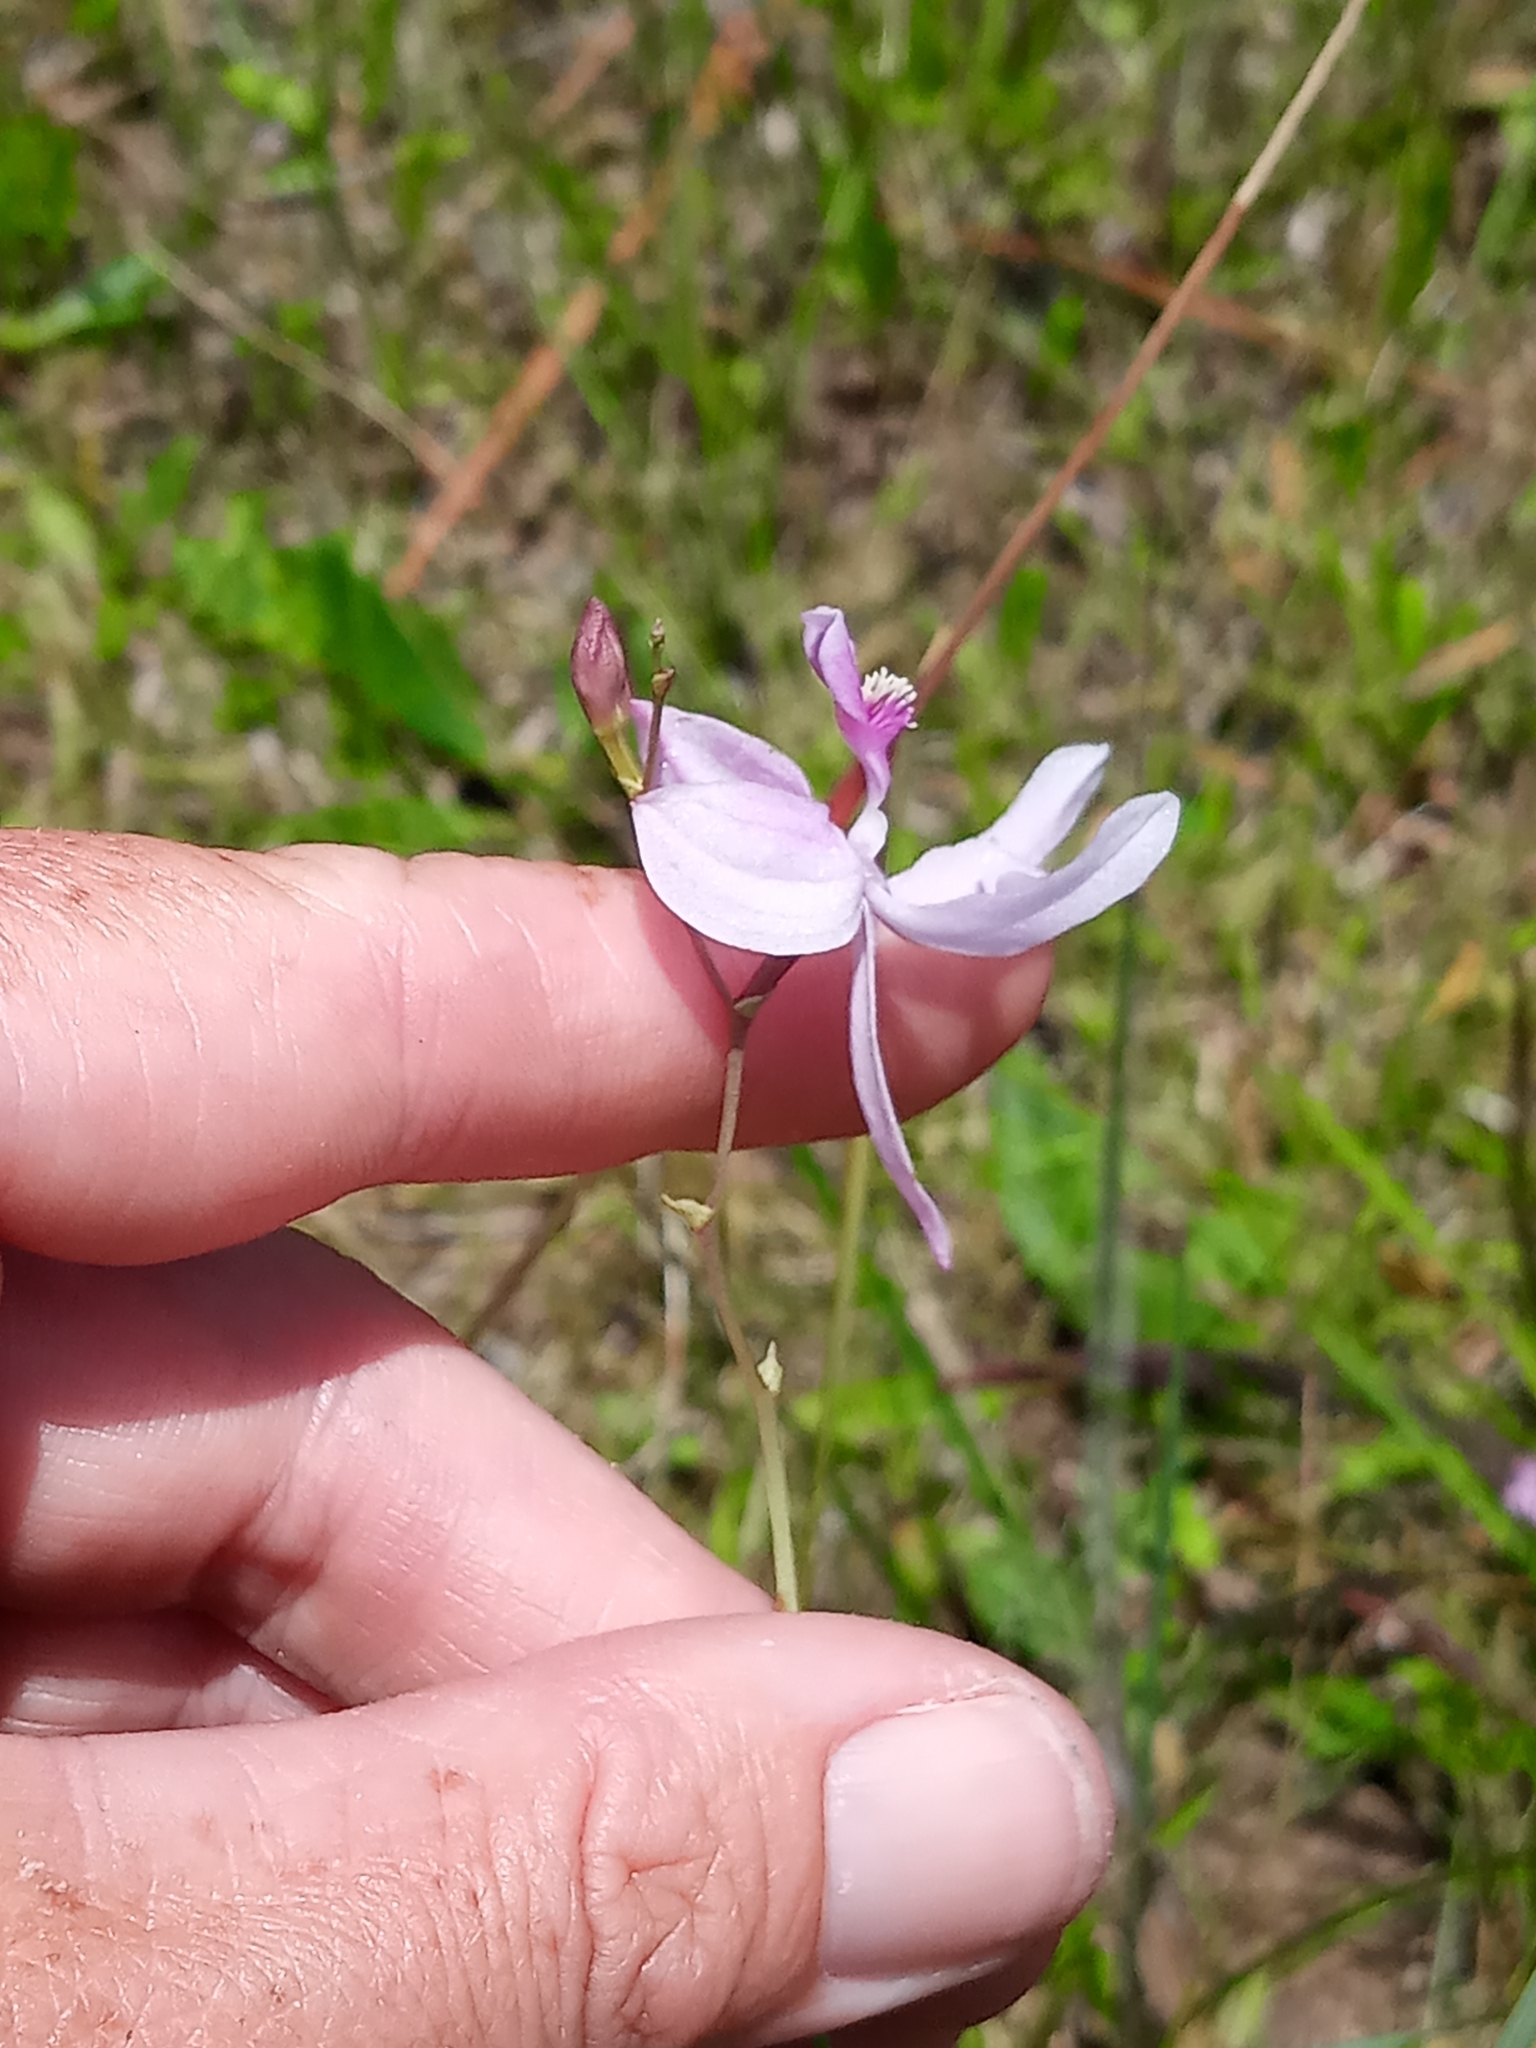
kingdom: Plantae
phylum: Tracheophyta
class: Liliopsida
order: Asparagales
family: Orchidaceae
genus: Calopogon
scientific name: Calopogon pallidus
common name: Pale grasspink
